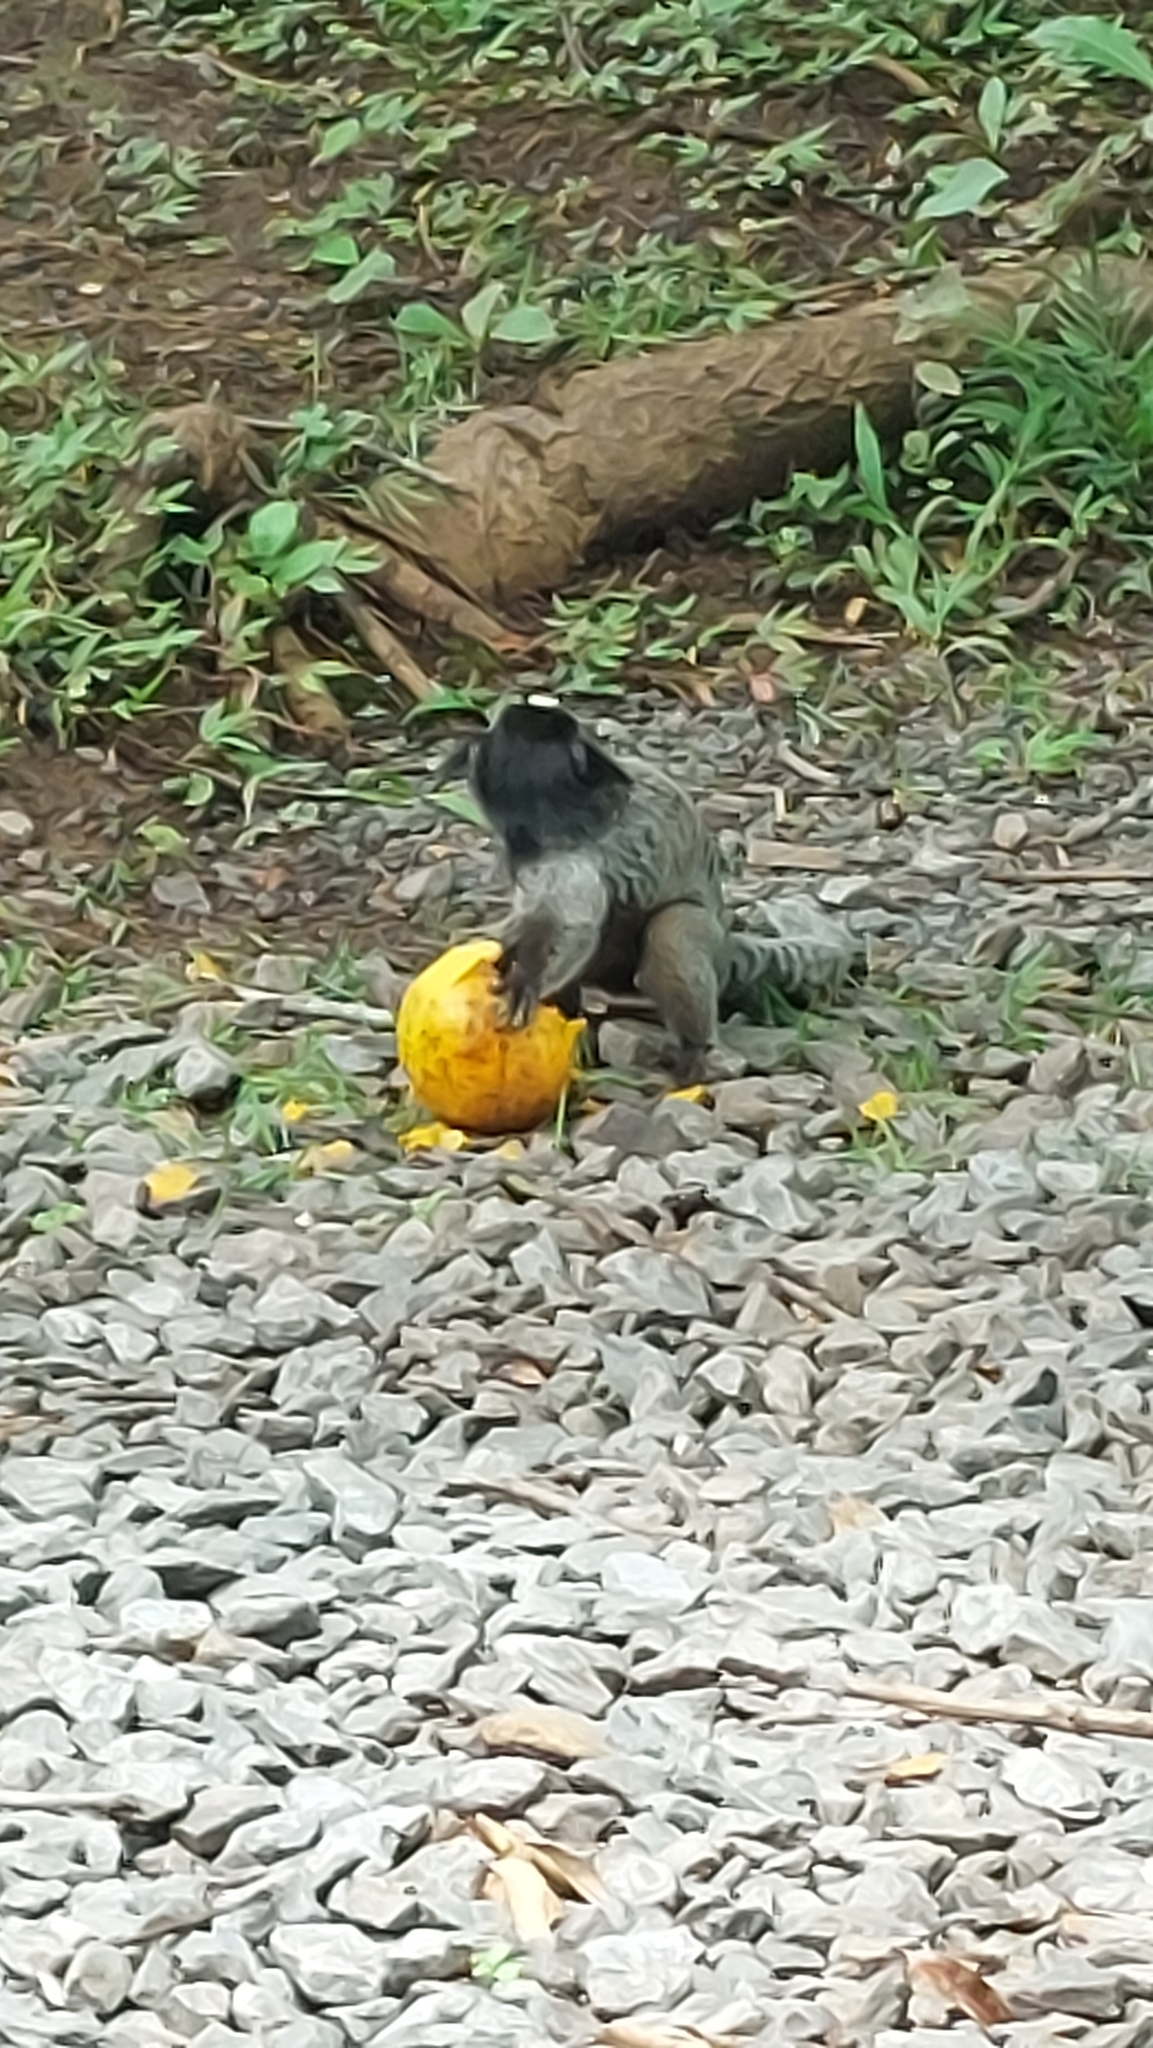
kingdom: Animalia
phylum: Chordata
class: Mammalia
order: Primates
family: Callitrichidae
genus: Callithrix
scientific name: Callithrix penicillata
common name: Black-tufted marmoset
